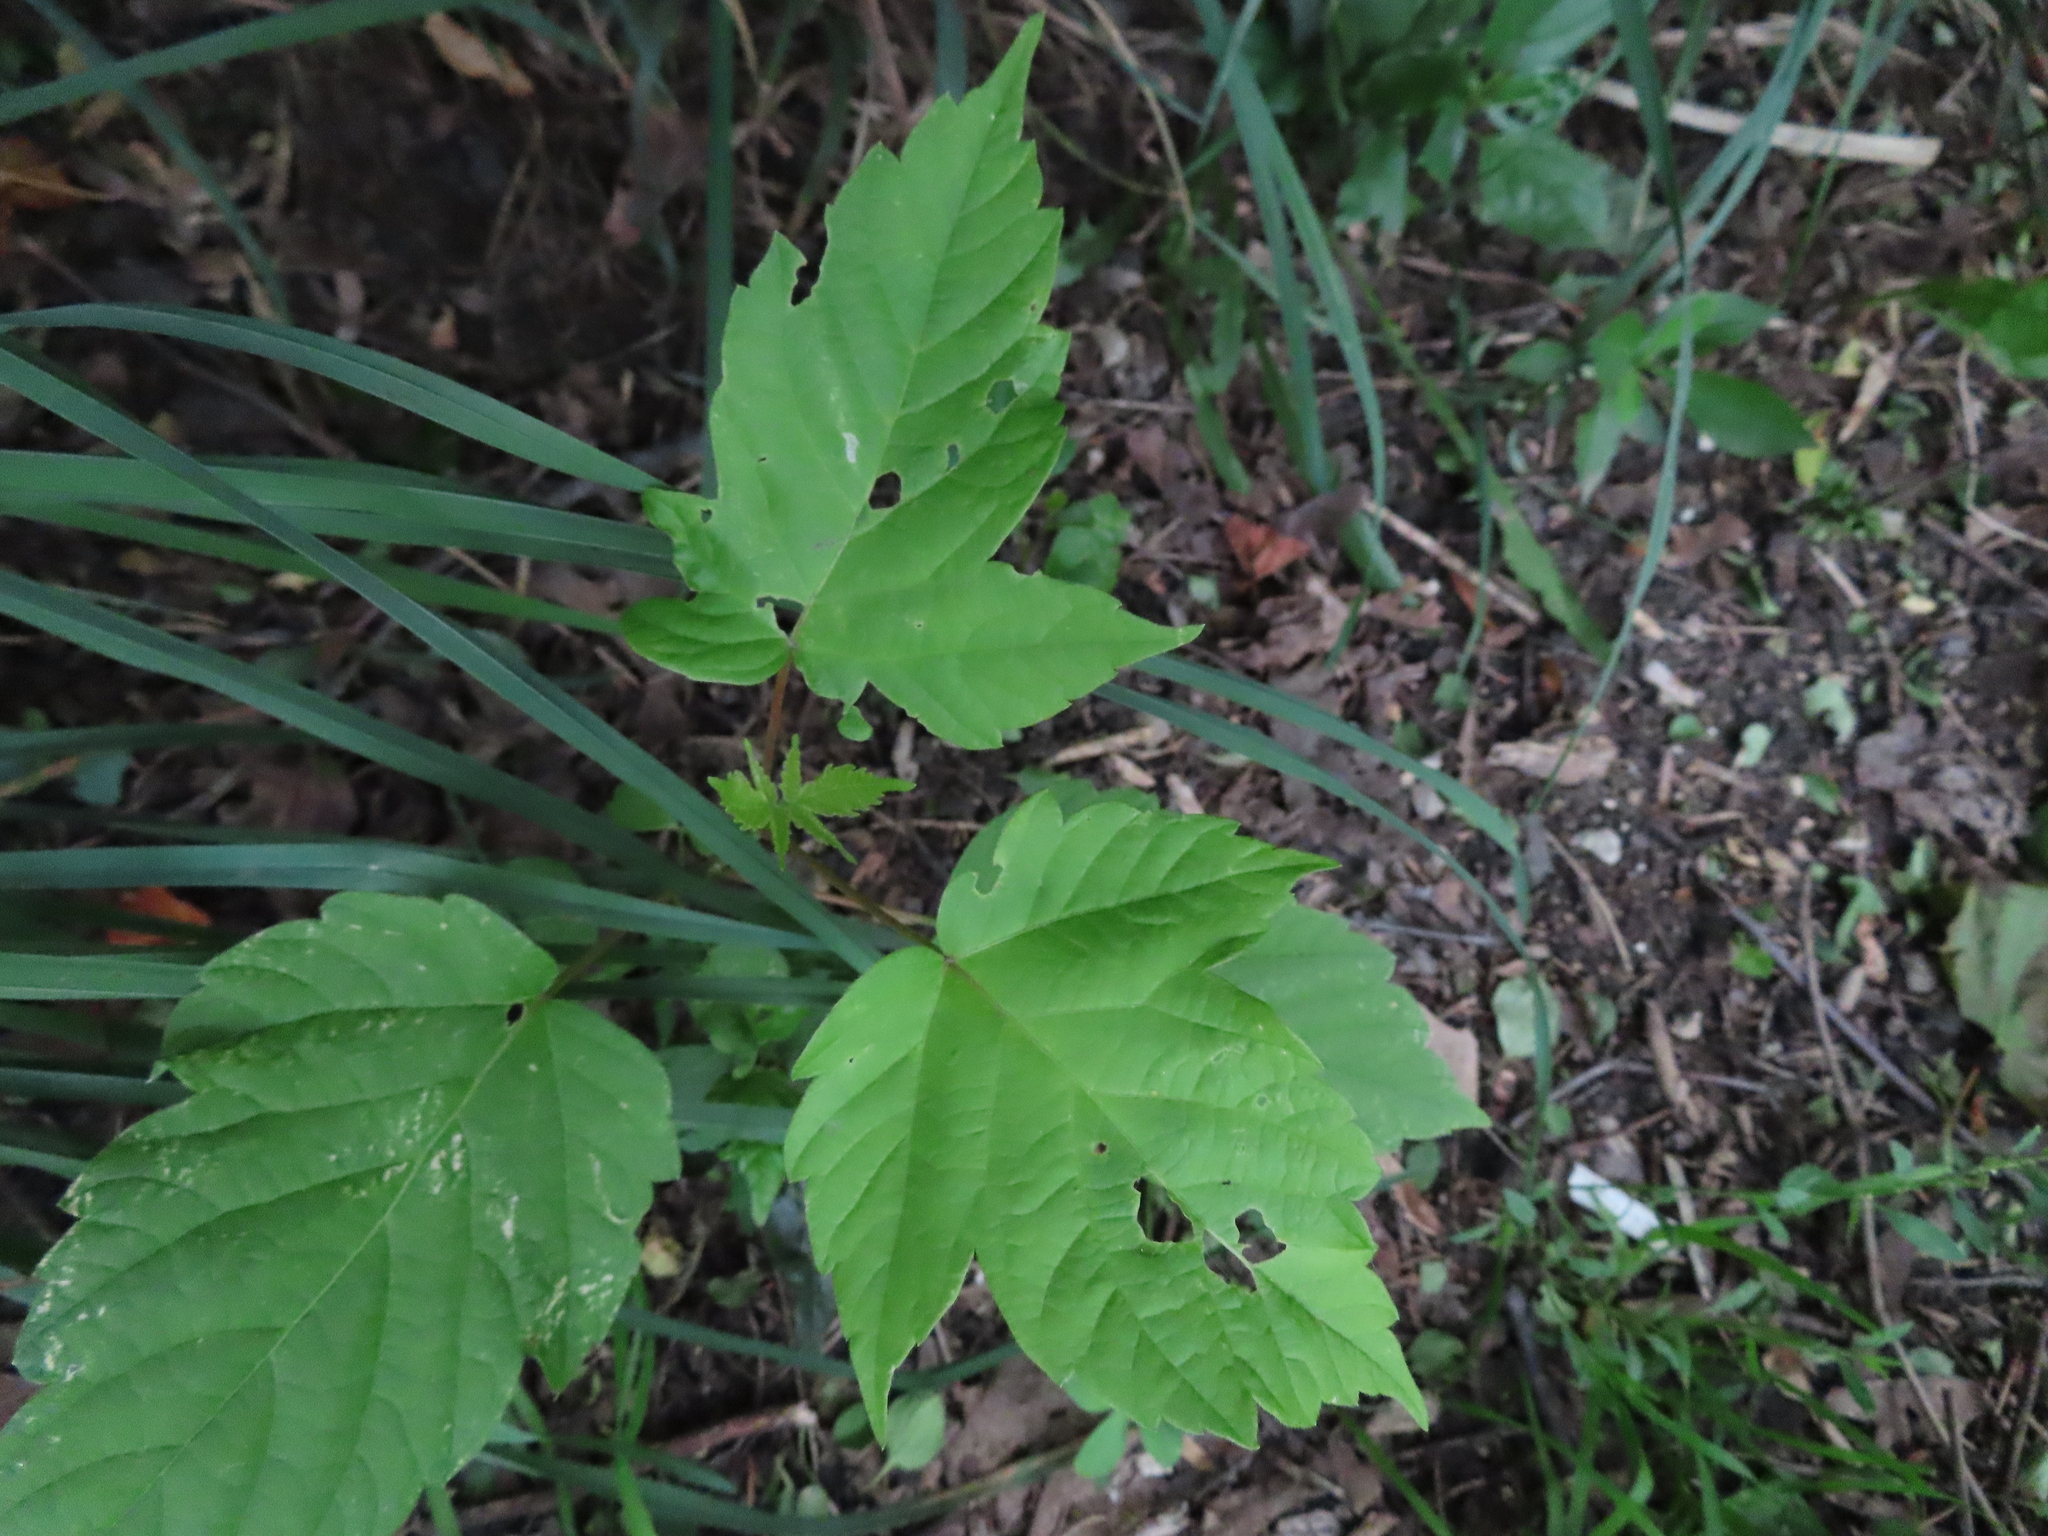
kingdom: Plantae
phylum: Tracheophyta
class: Magnoliopsida
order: Sapindales
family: Sapindaceae
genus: Acer
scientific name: Acer negundo
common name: Ashleaf maple
